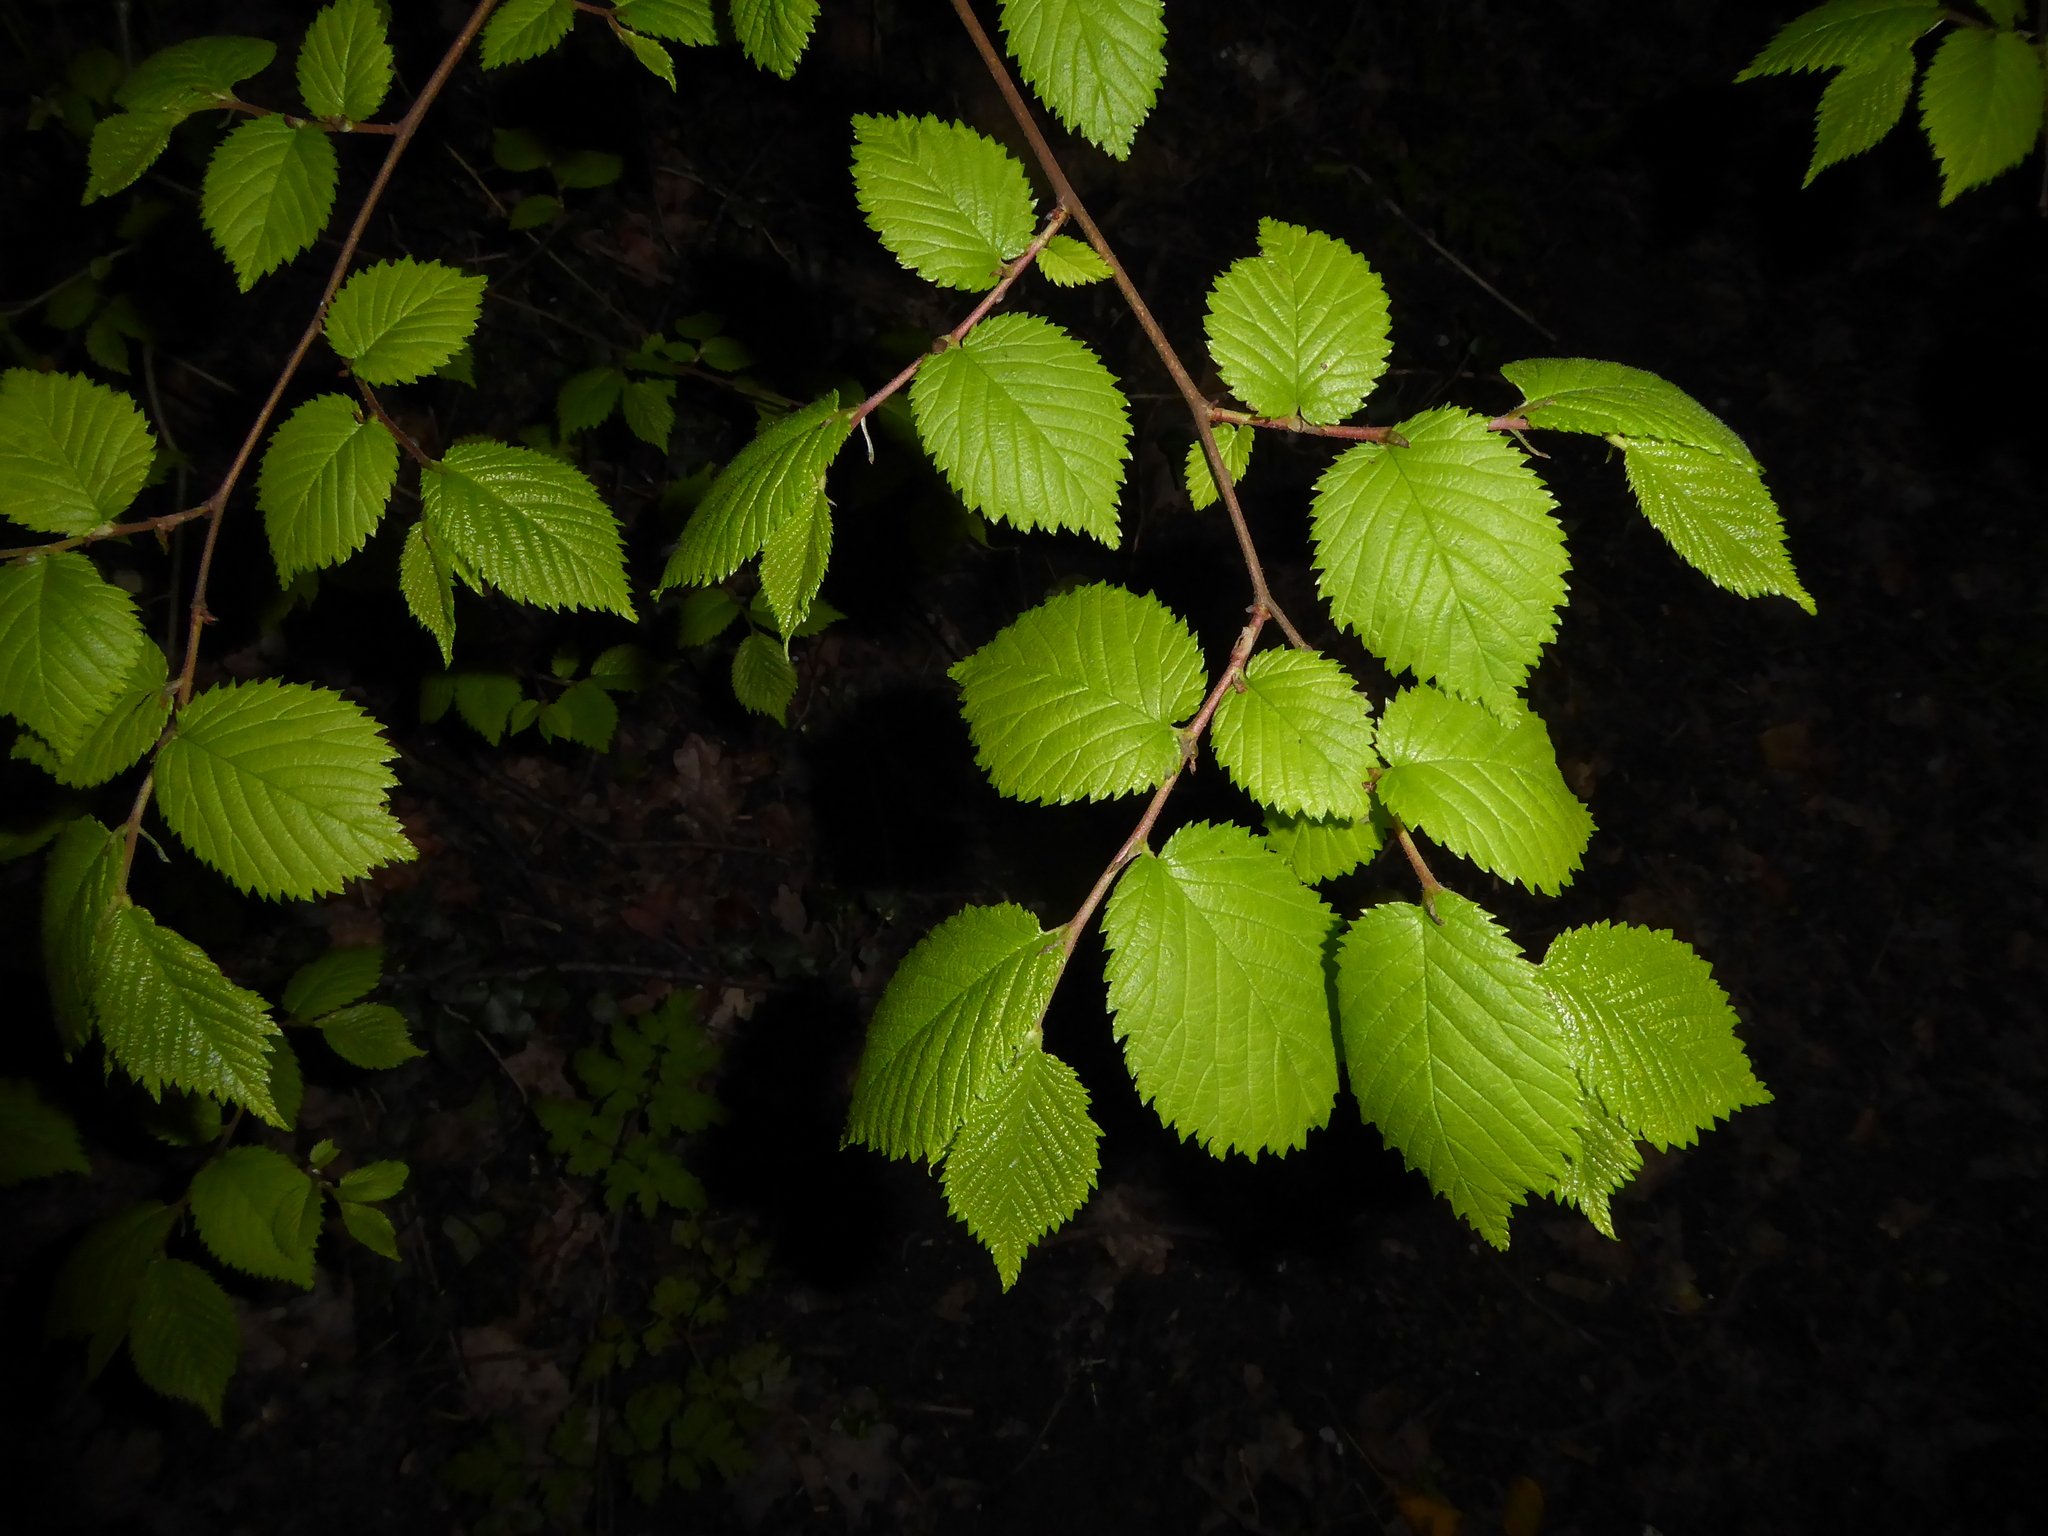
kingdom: Plantae
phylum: Tracheophyta
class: Magnoliopsida
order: Fagales
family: Betulaceae
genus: Corylus
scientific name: Corylus avellana
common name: European hazel
